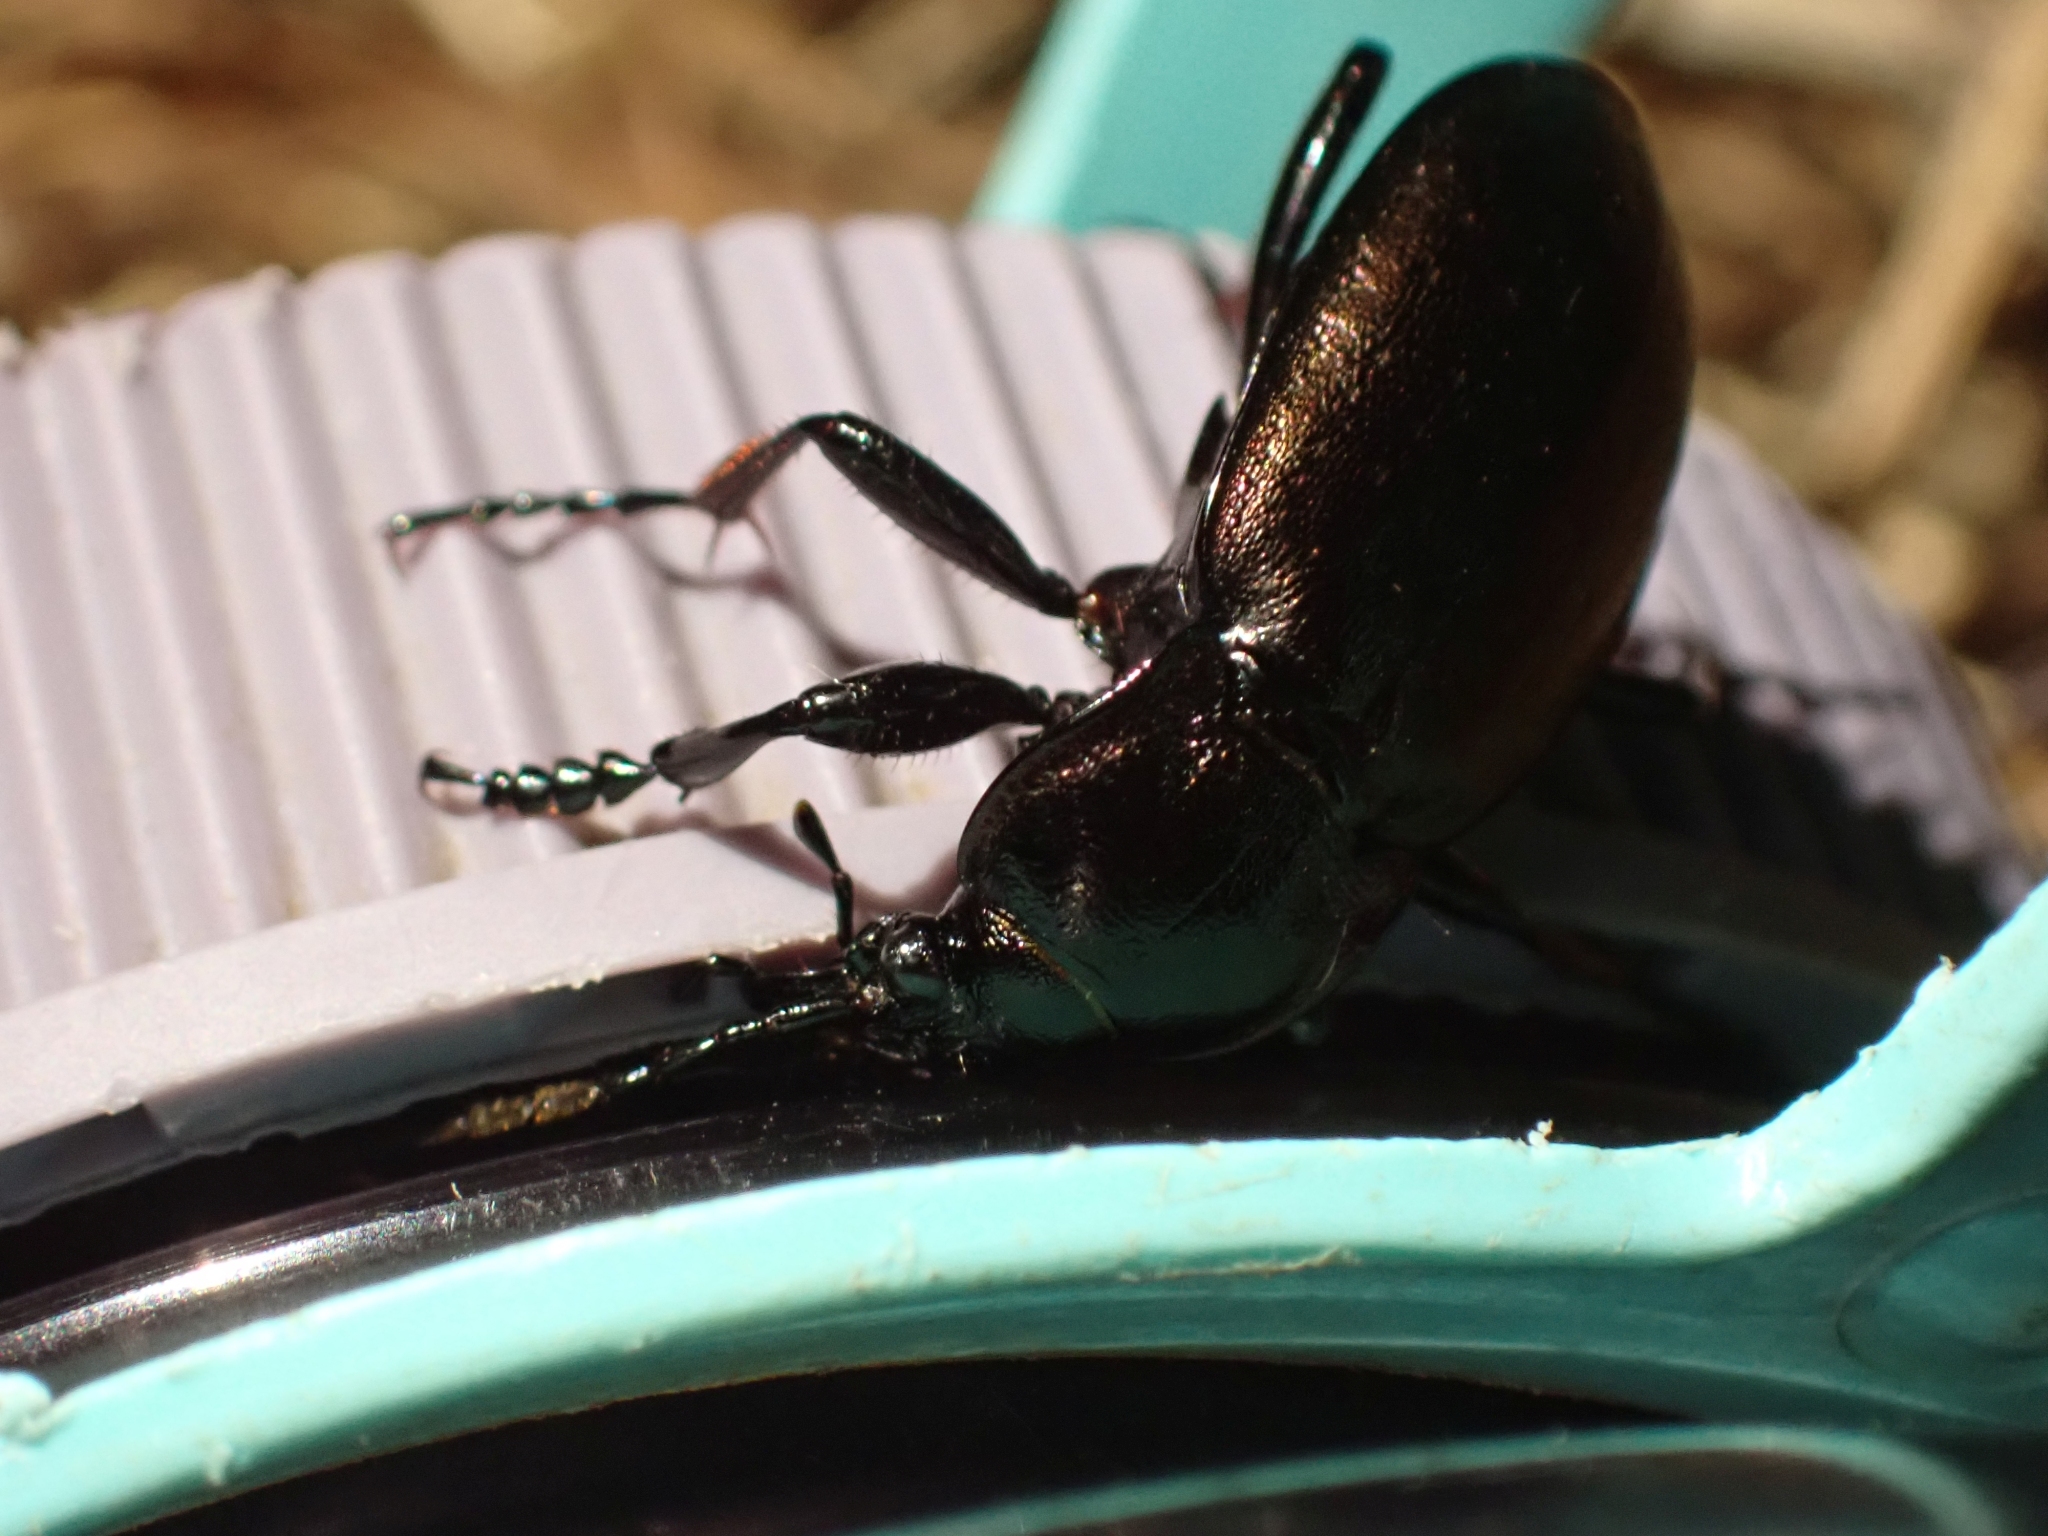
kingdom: Animalia
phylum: Arthropoda
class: Insecta
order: Coleoptera
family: Carabidae
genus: Carabus
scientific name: Carabus nemoralis
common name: European ground beetle
